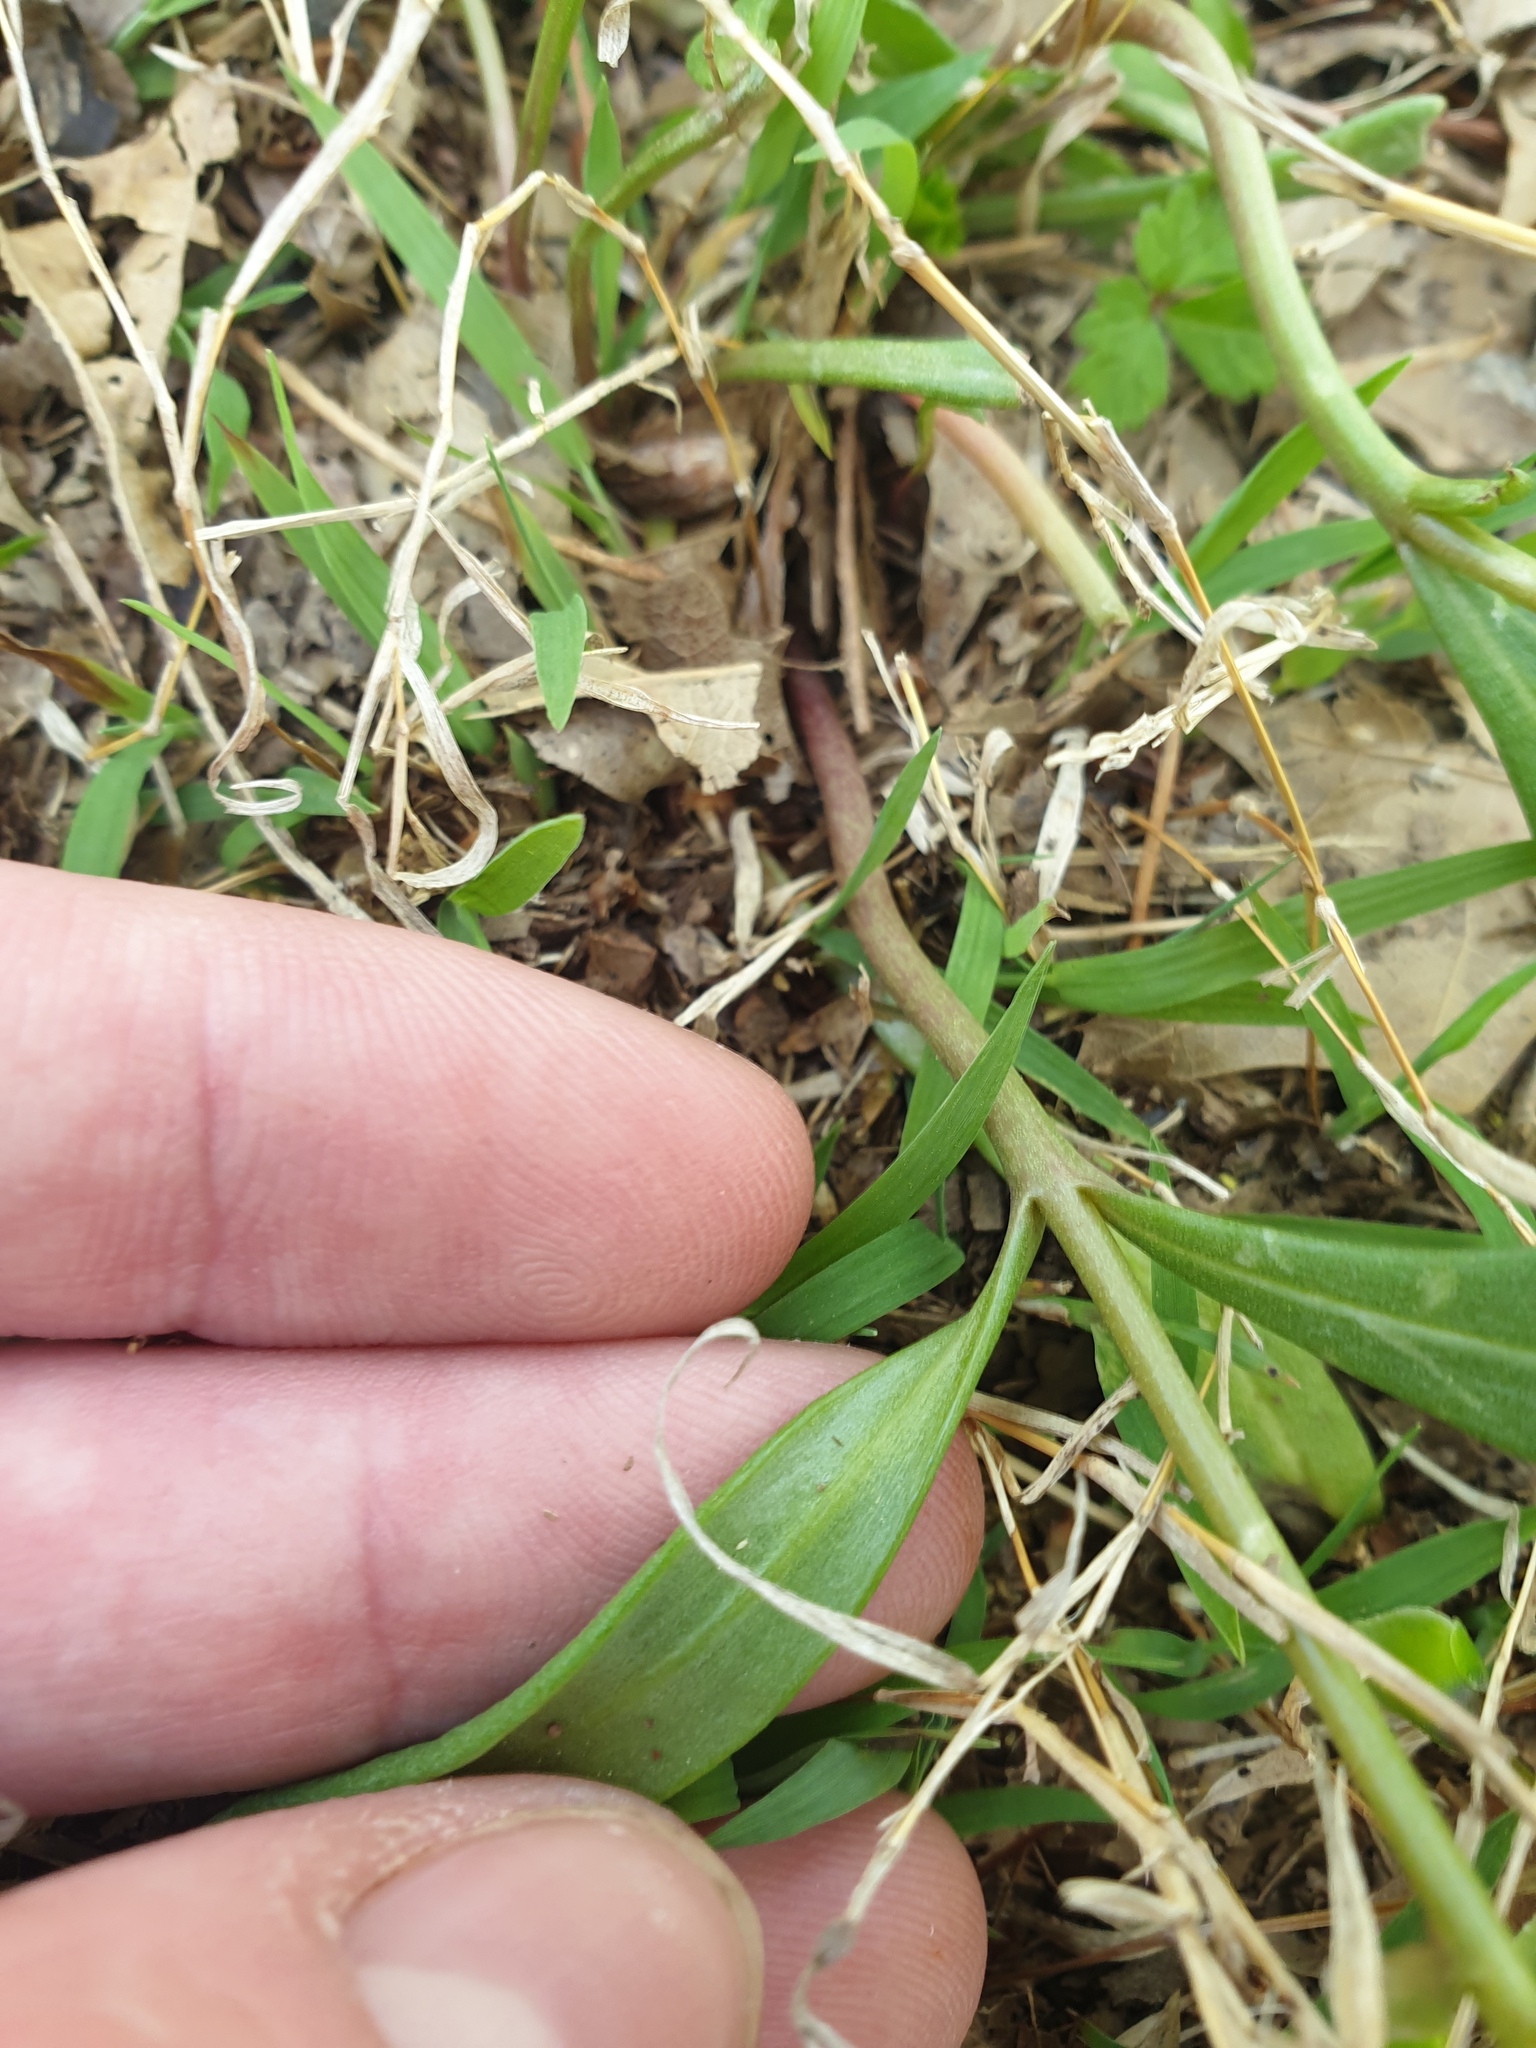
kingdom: Plantae
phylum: Tracheophyta
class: Magnoliopsida
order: Caryophyllales
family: Montiaceae
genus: Claytonia
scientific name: Claytonia virginica
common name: Virginia springbeauty
